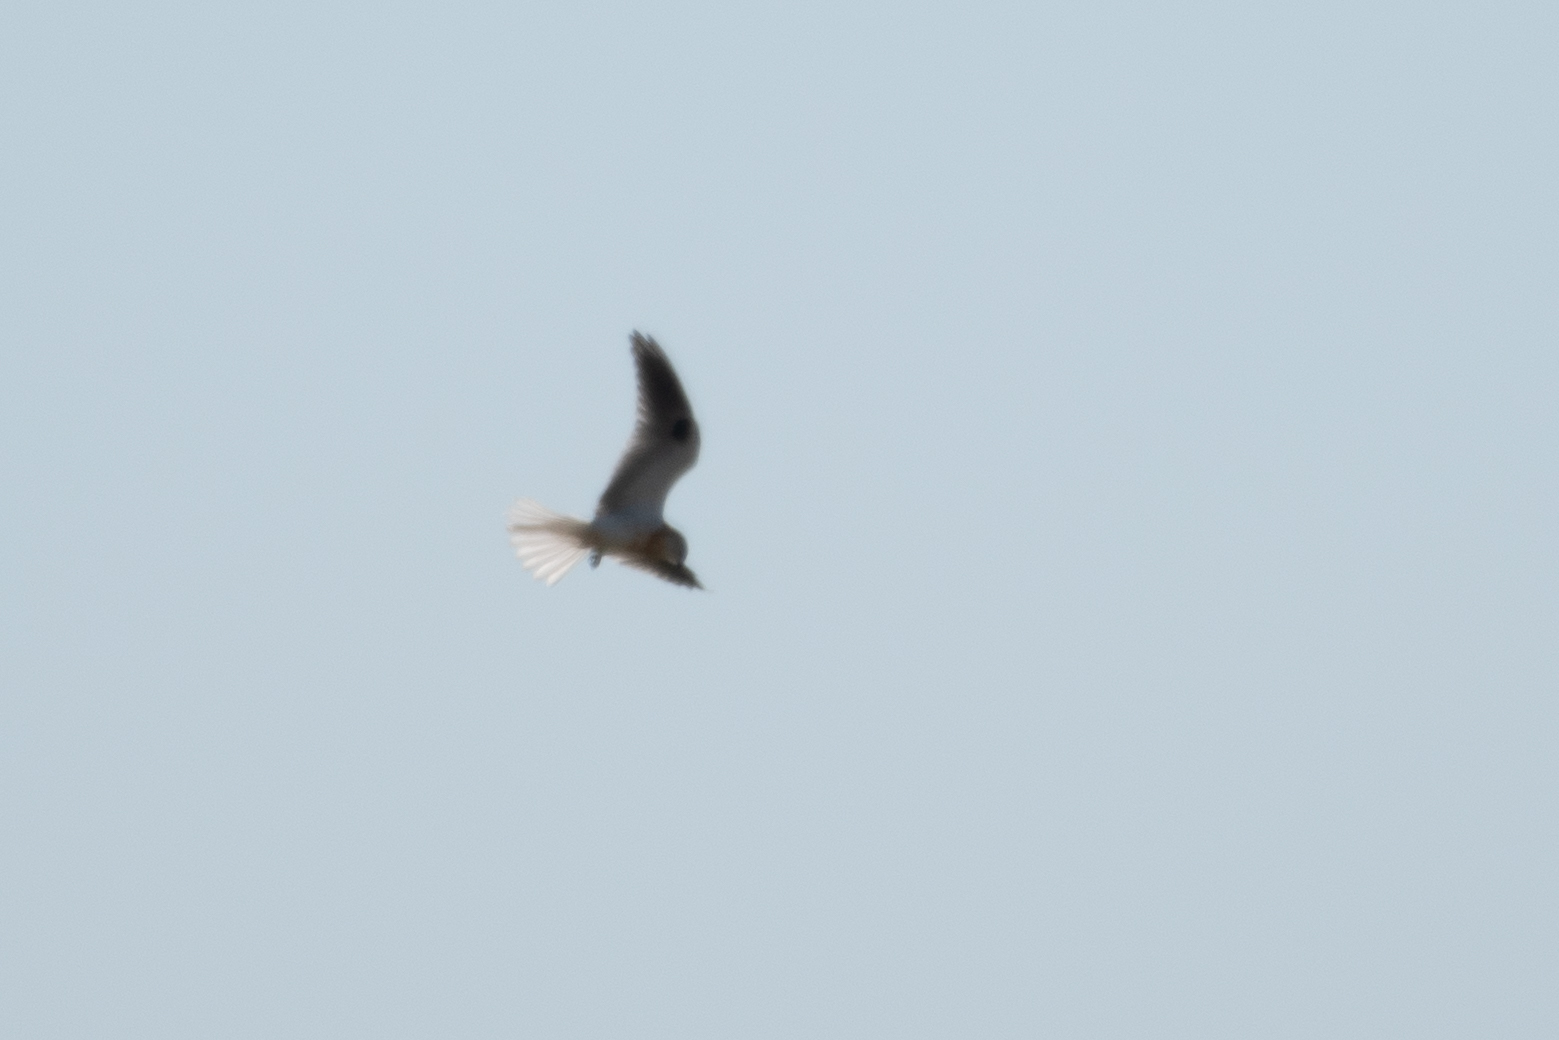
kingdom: Animalia
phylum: Chordata
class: Aves
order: Accipitriformes
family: Accipitridae
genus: Elanus
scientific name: Elanus leucurus
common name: White-tailed kite
